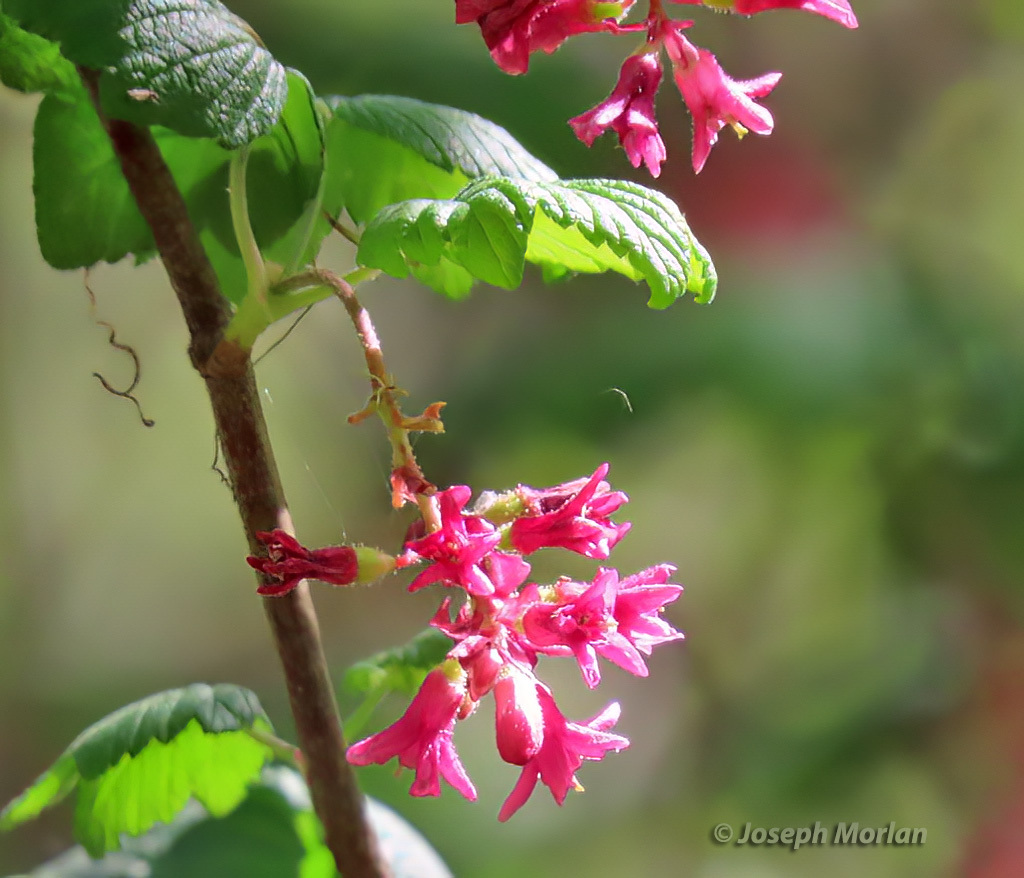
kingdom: Plantae
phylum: Tracheophyta
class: Magnoliopsida
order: Saxifragales
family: Grossulariaceae
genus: Ribes
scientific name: Ribes sanguineum
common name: Flowering currant
